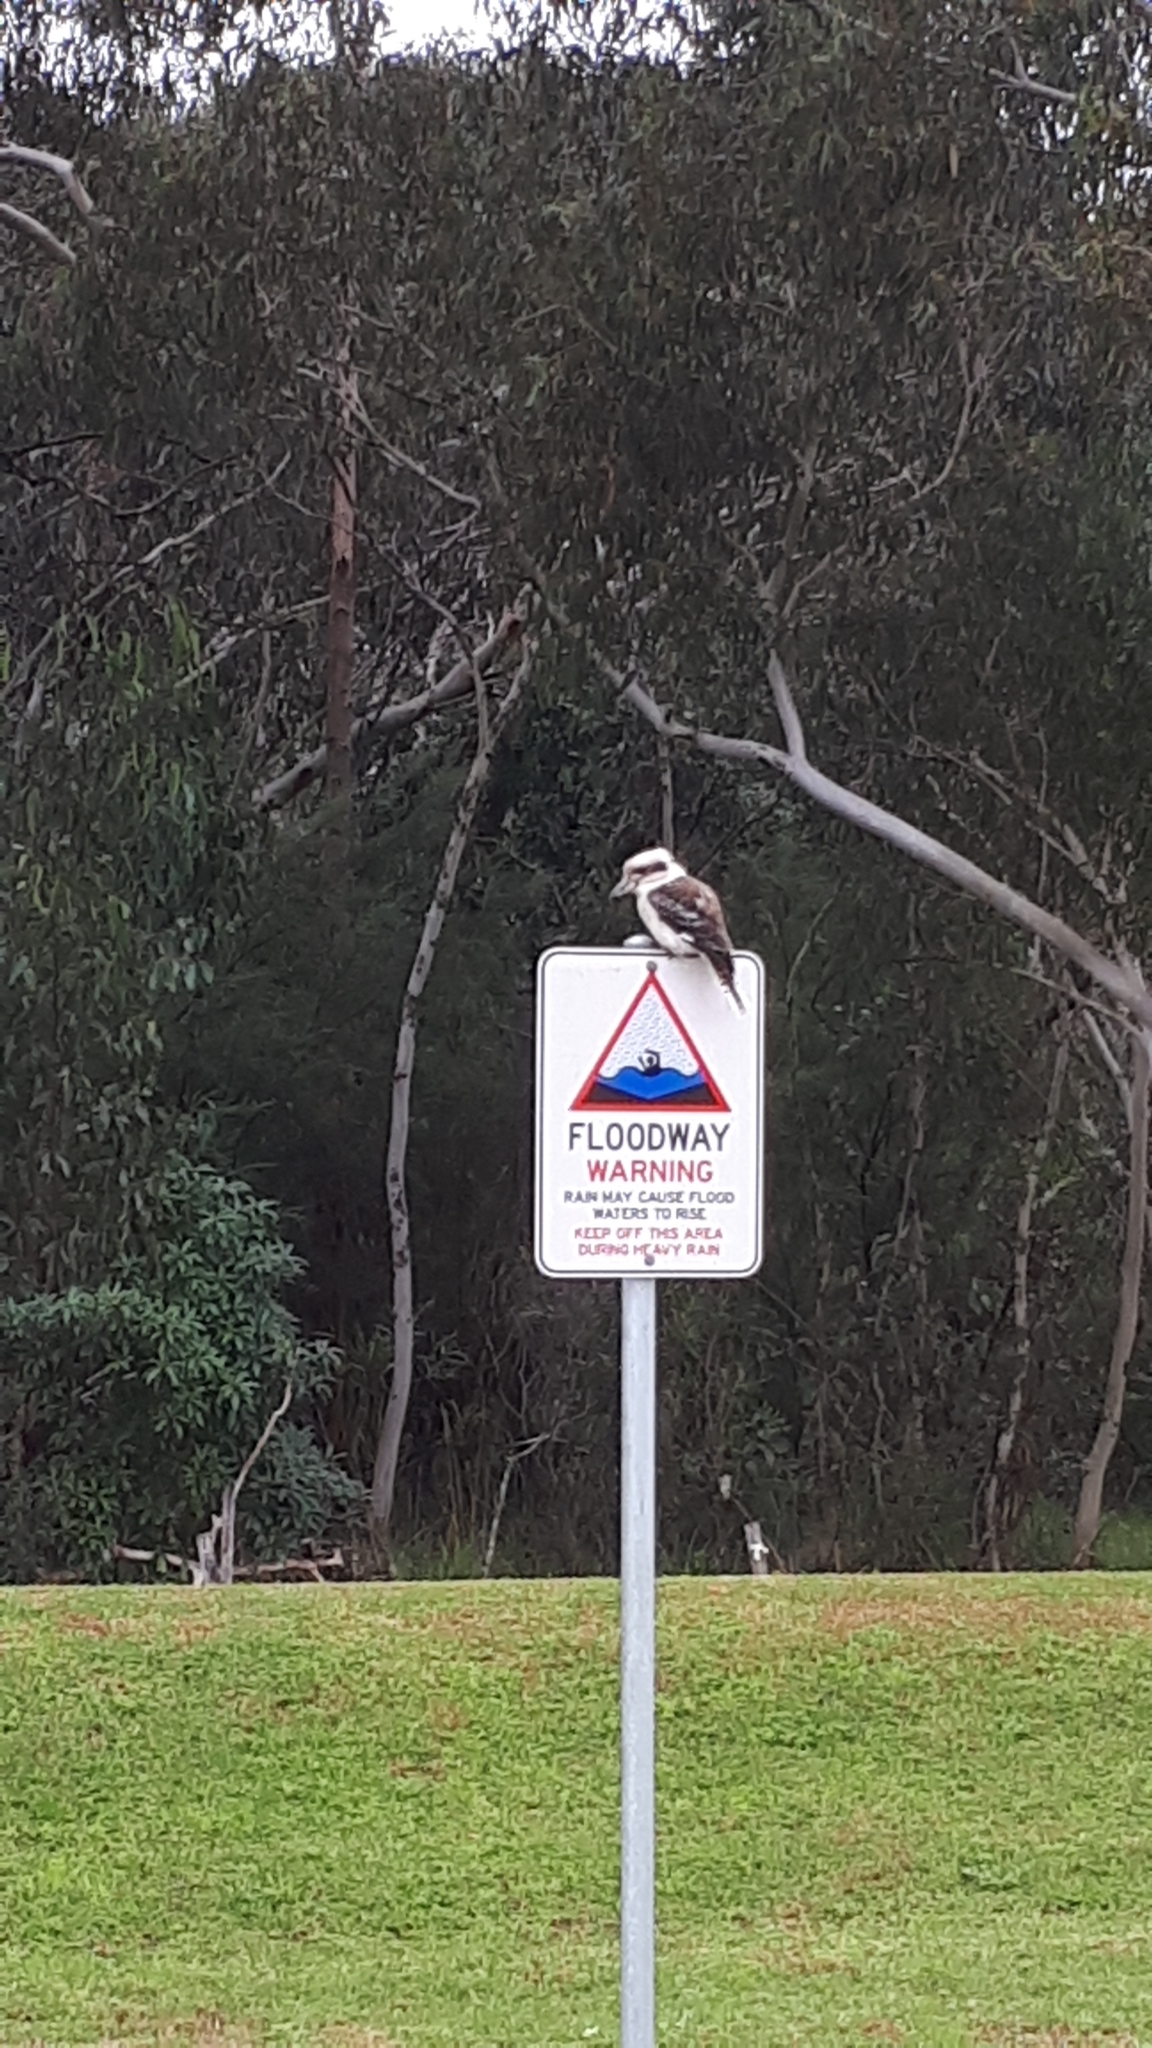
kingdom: Animalia
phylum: Chordata
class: Aves
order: Coraciiformes
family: Alcedinidae
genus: Dacelo
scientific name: Dacelo novaeguineae
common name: Laughing kookaburra
